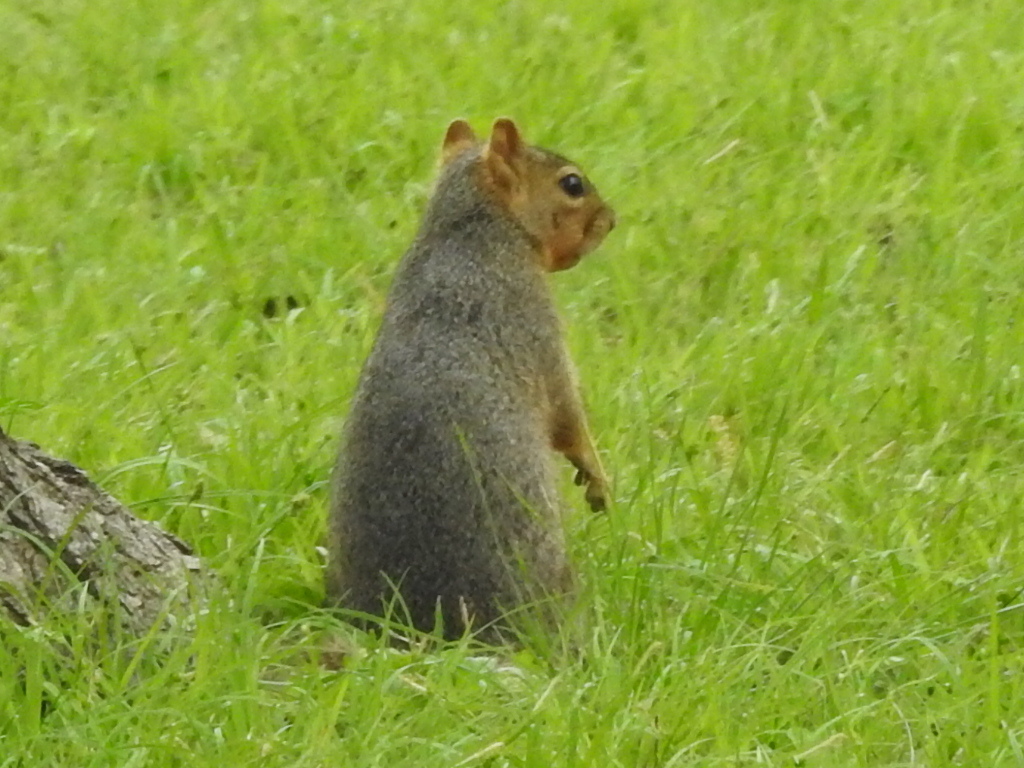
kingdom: Animalia
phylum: Chordata
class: Mammalia
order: Rodentia
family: Sciuridae
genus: Sciurus
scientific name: Sciurus niger
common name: Fox squirrel
